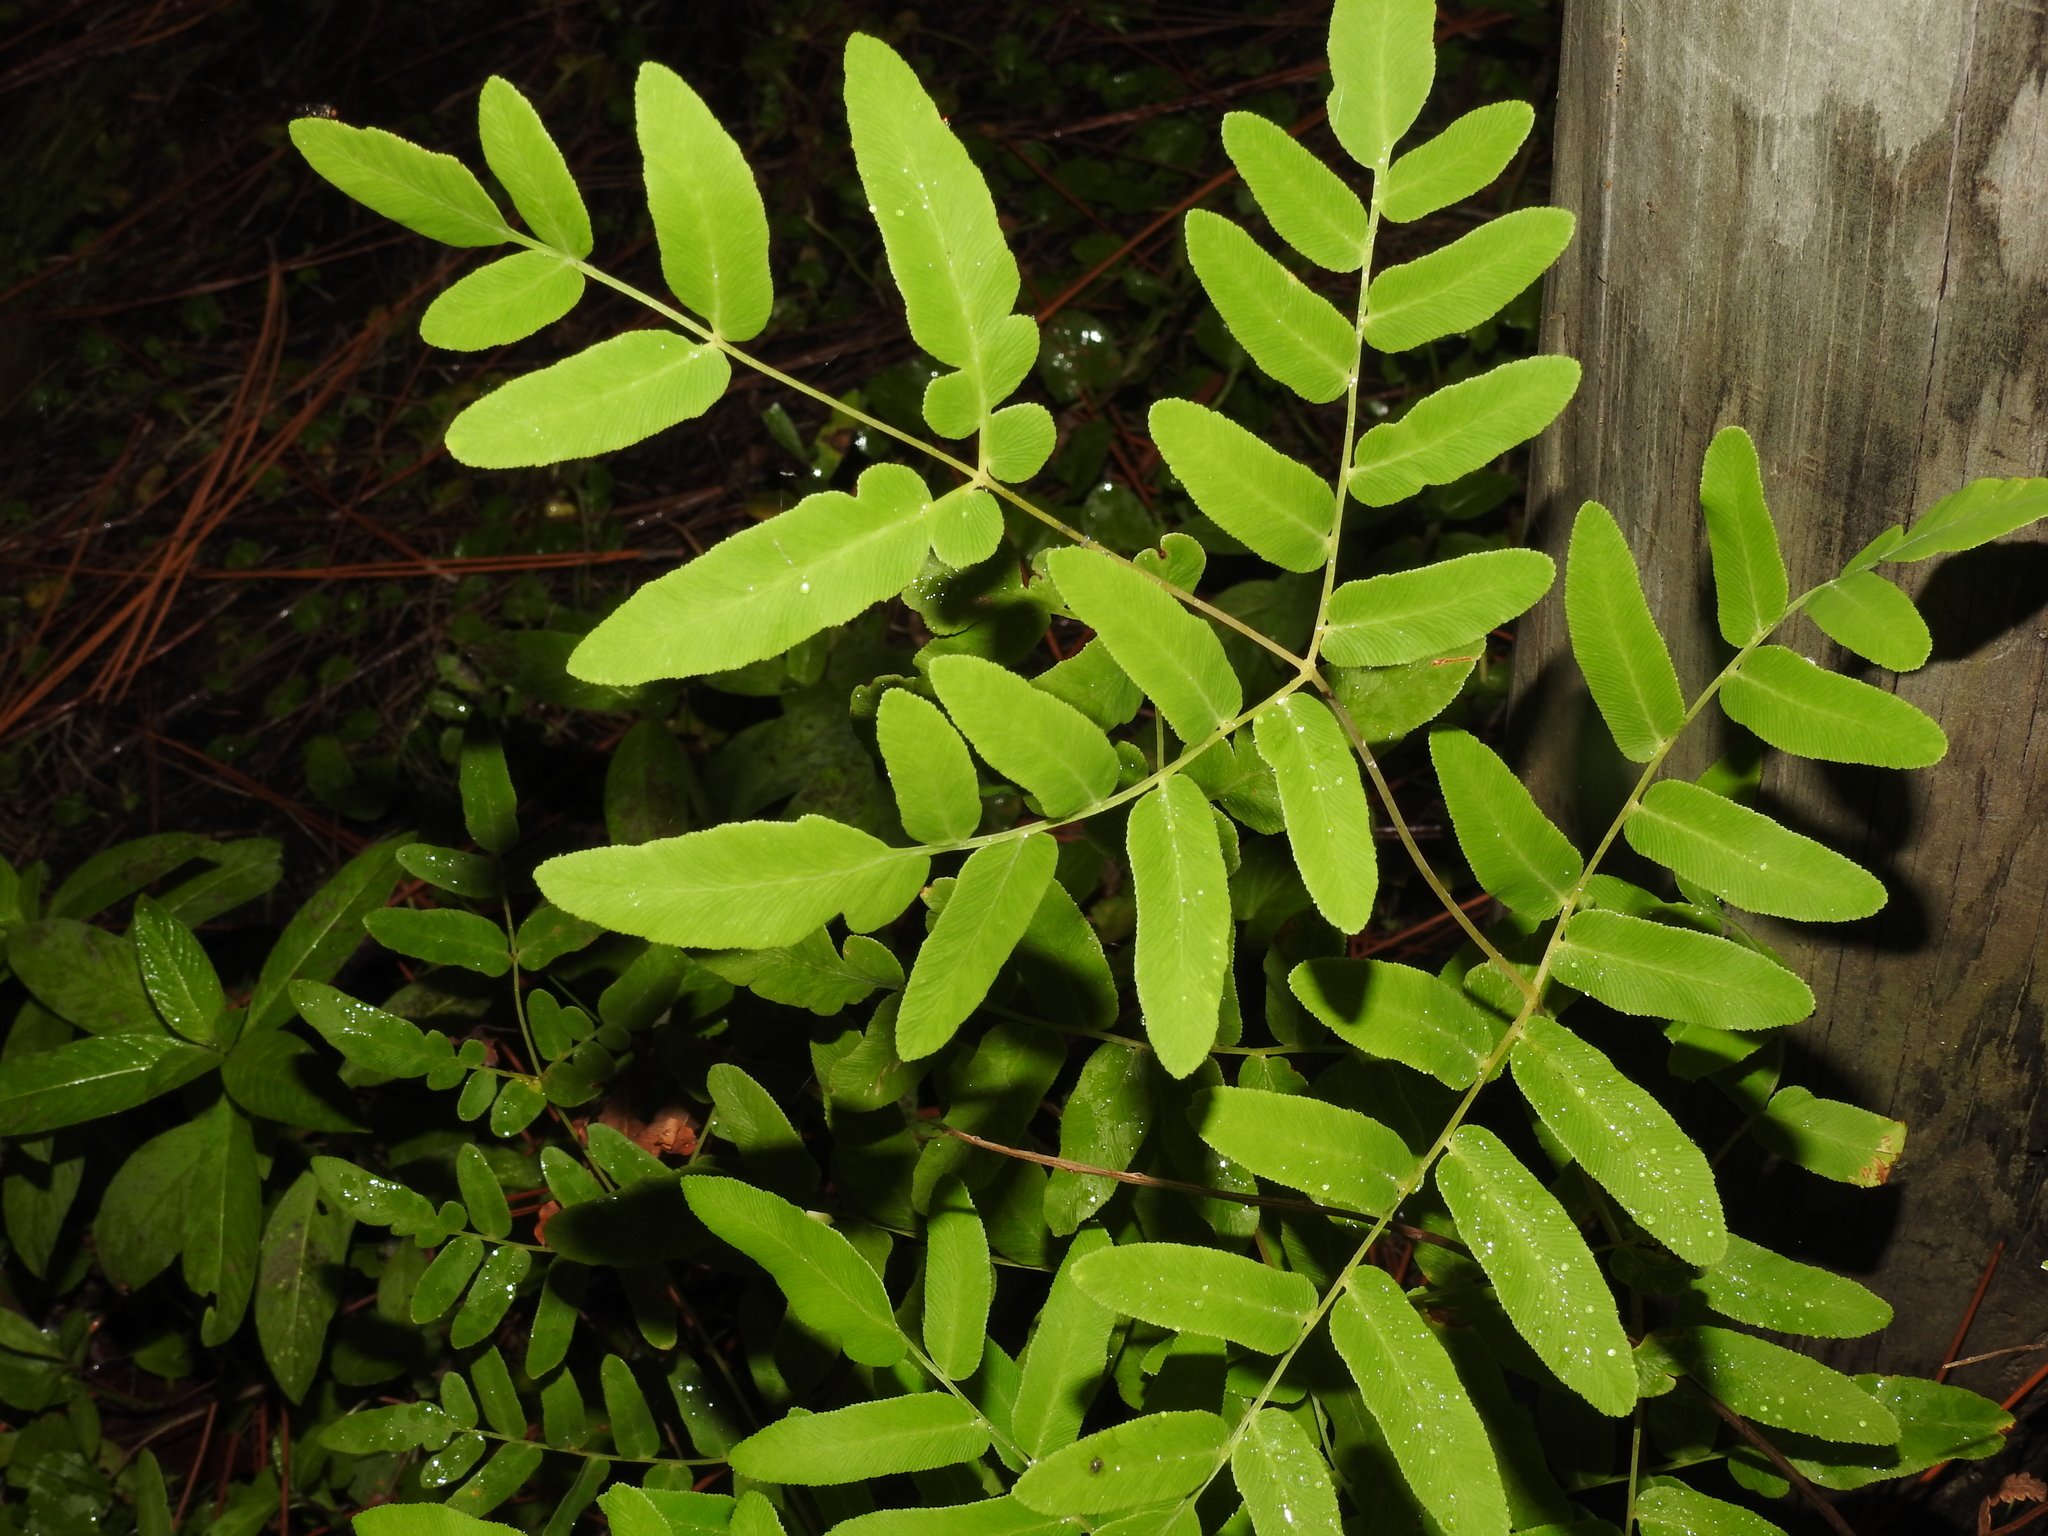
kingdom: Plantae
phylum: Tracheophyta
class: Polypodiopsida
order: Osmundales
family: Osmundaceae
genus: Osmunda
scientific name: Osmunda spectabilis
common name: American royal fern
